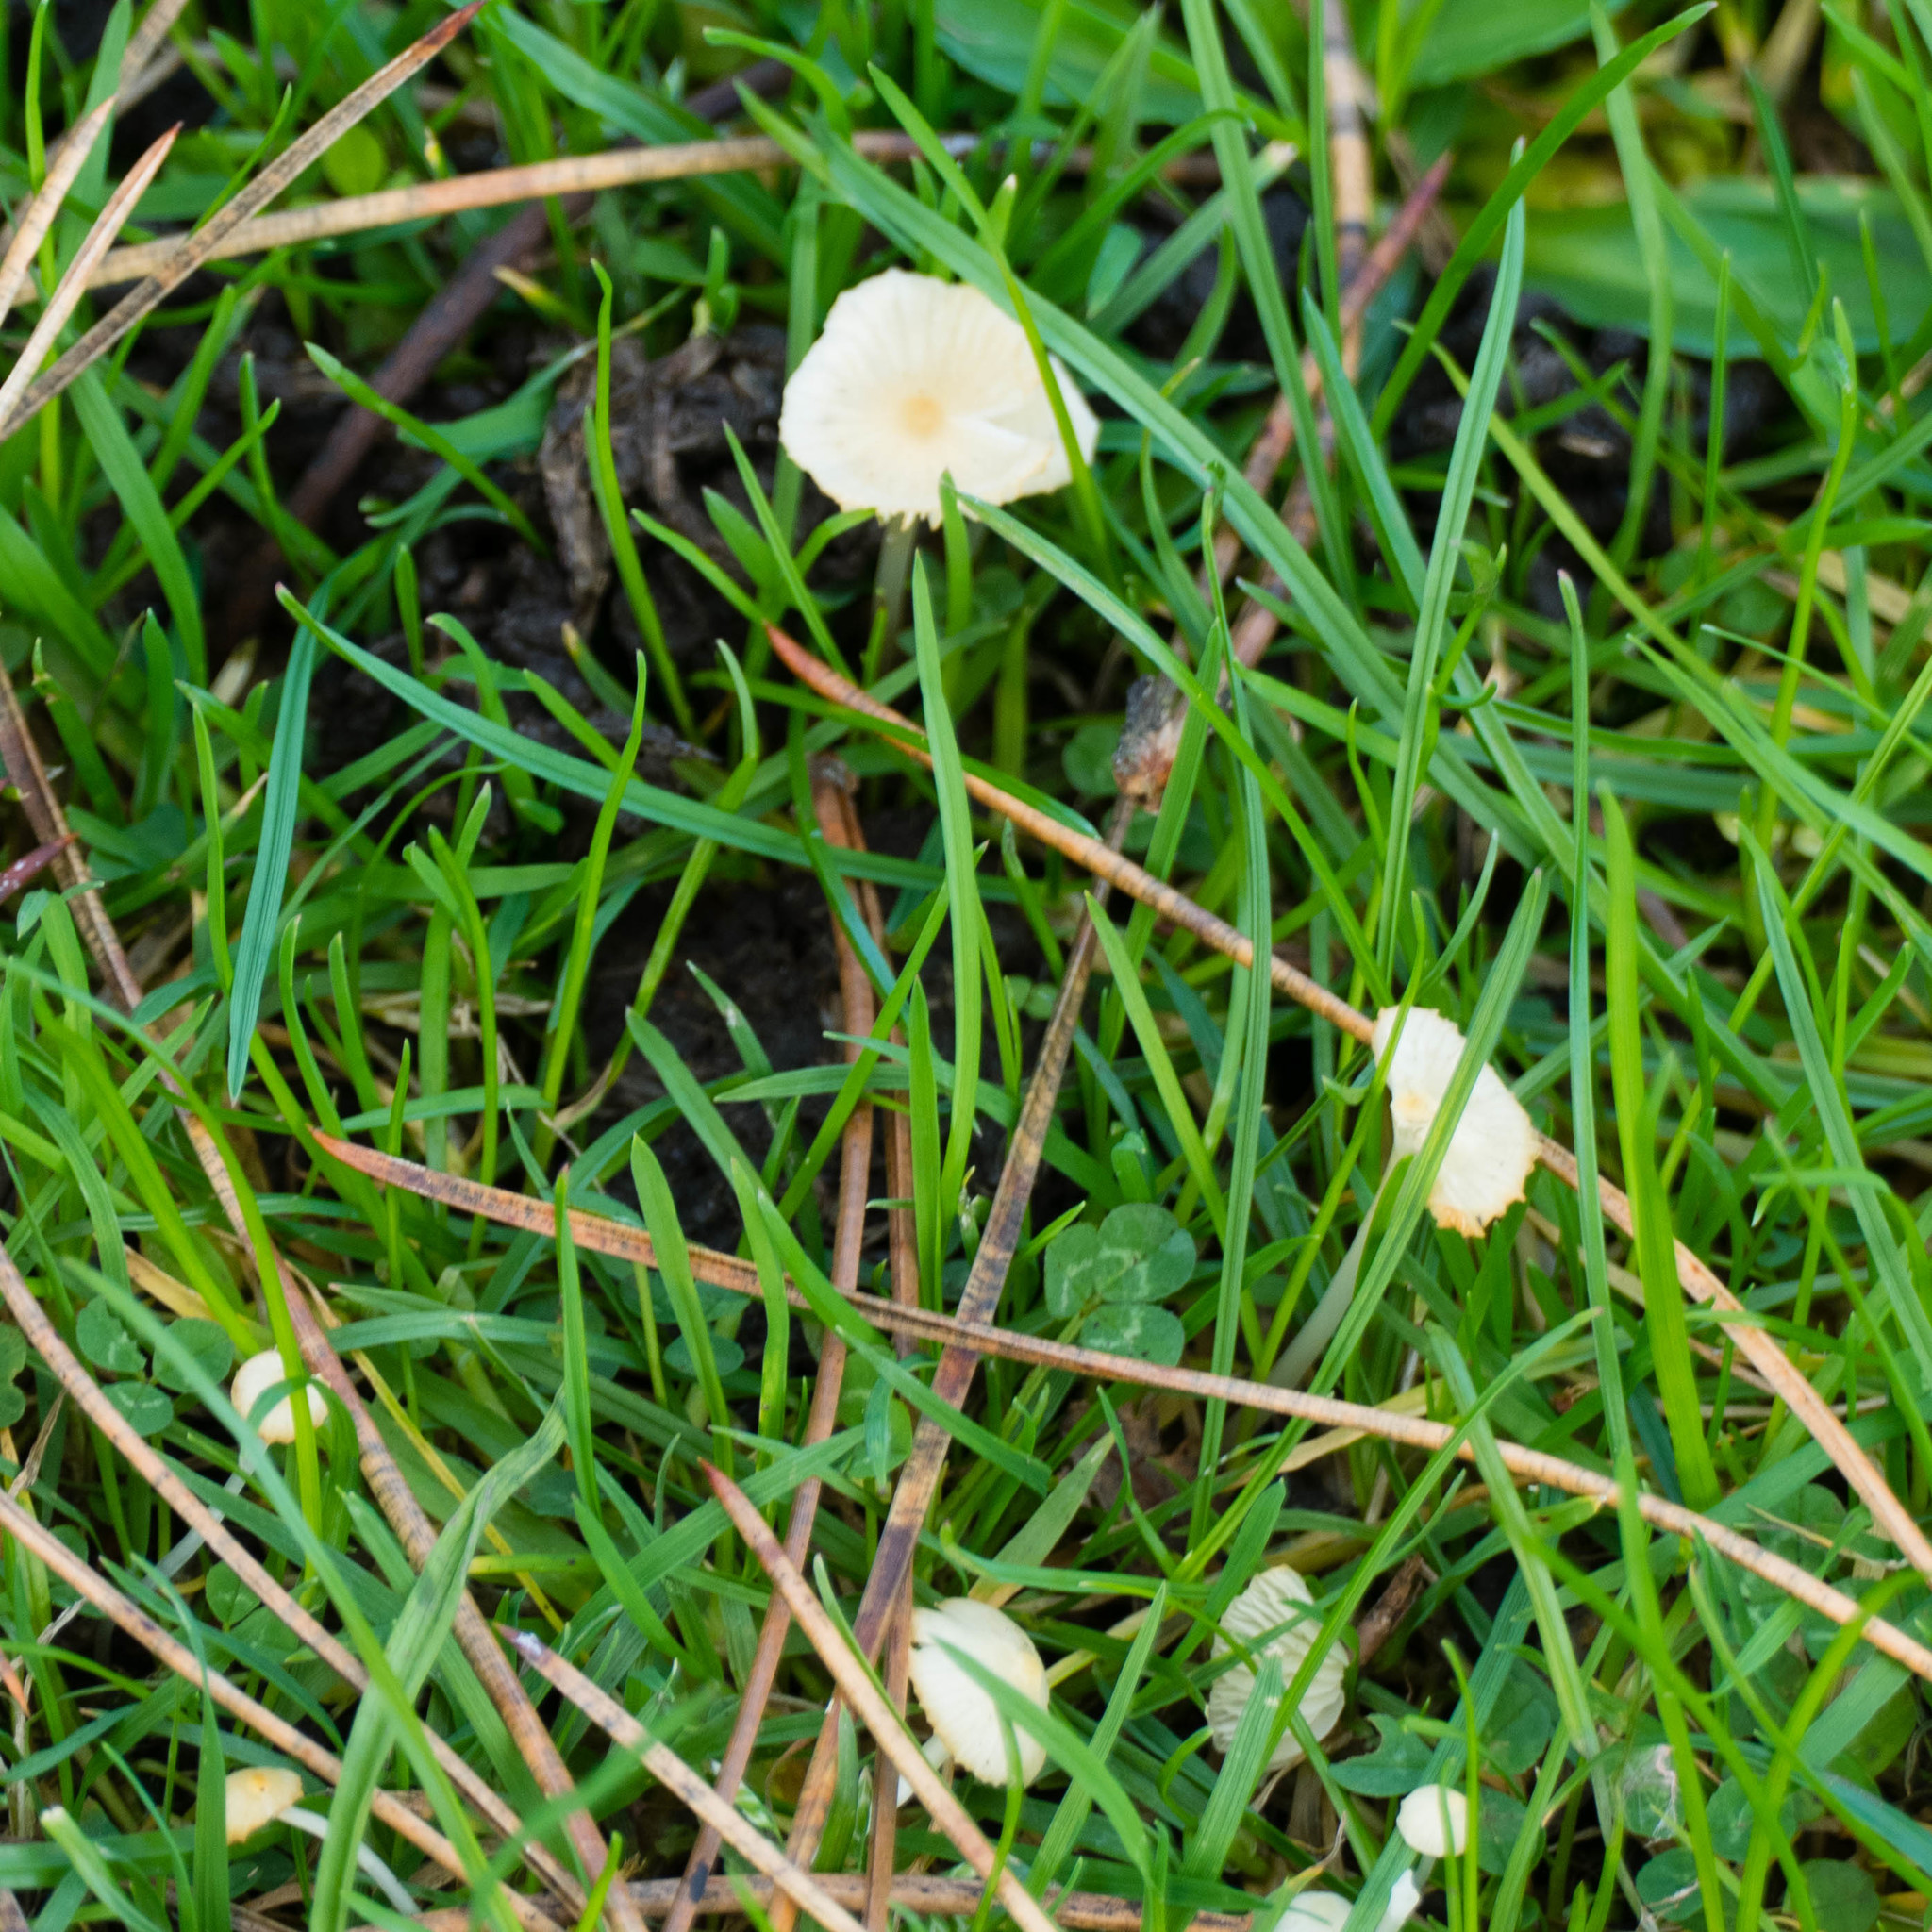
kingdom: Fungi
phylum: Basidiomycota
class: Agaricomycetes
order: Agaricales
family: Mycenaceae
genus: Atheniella
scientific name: Atheniella flavoalba
